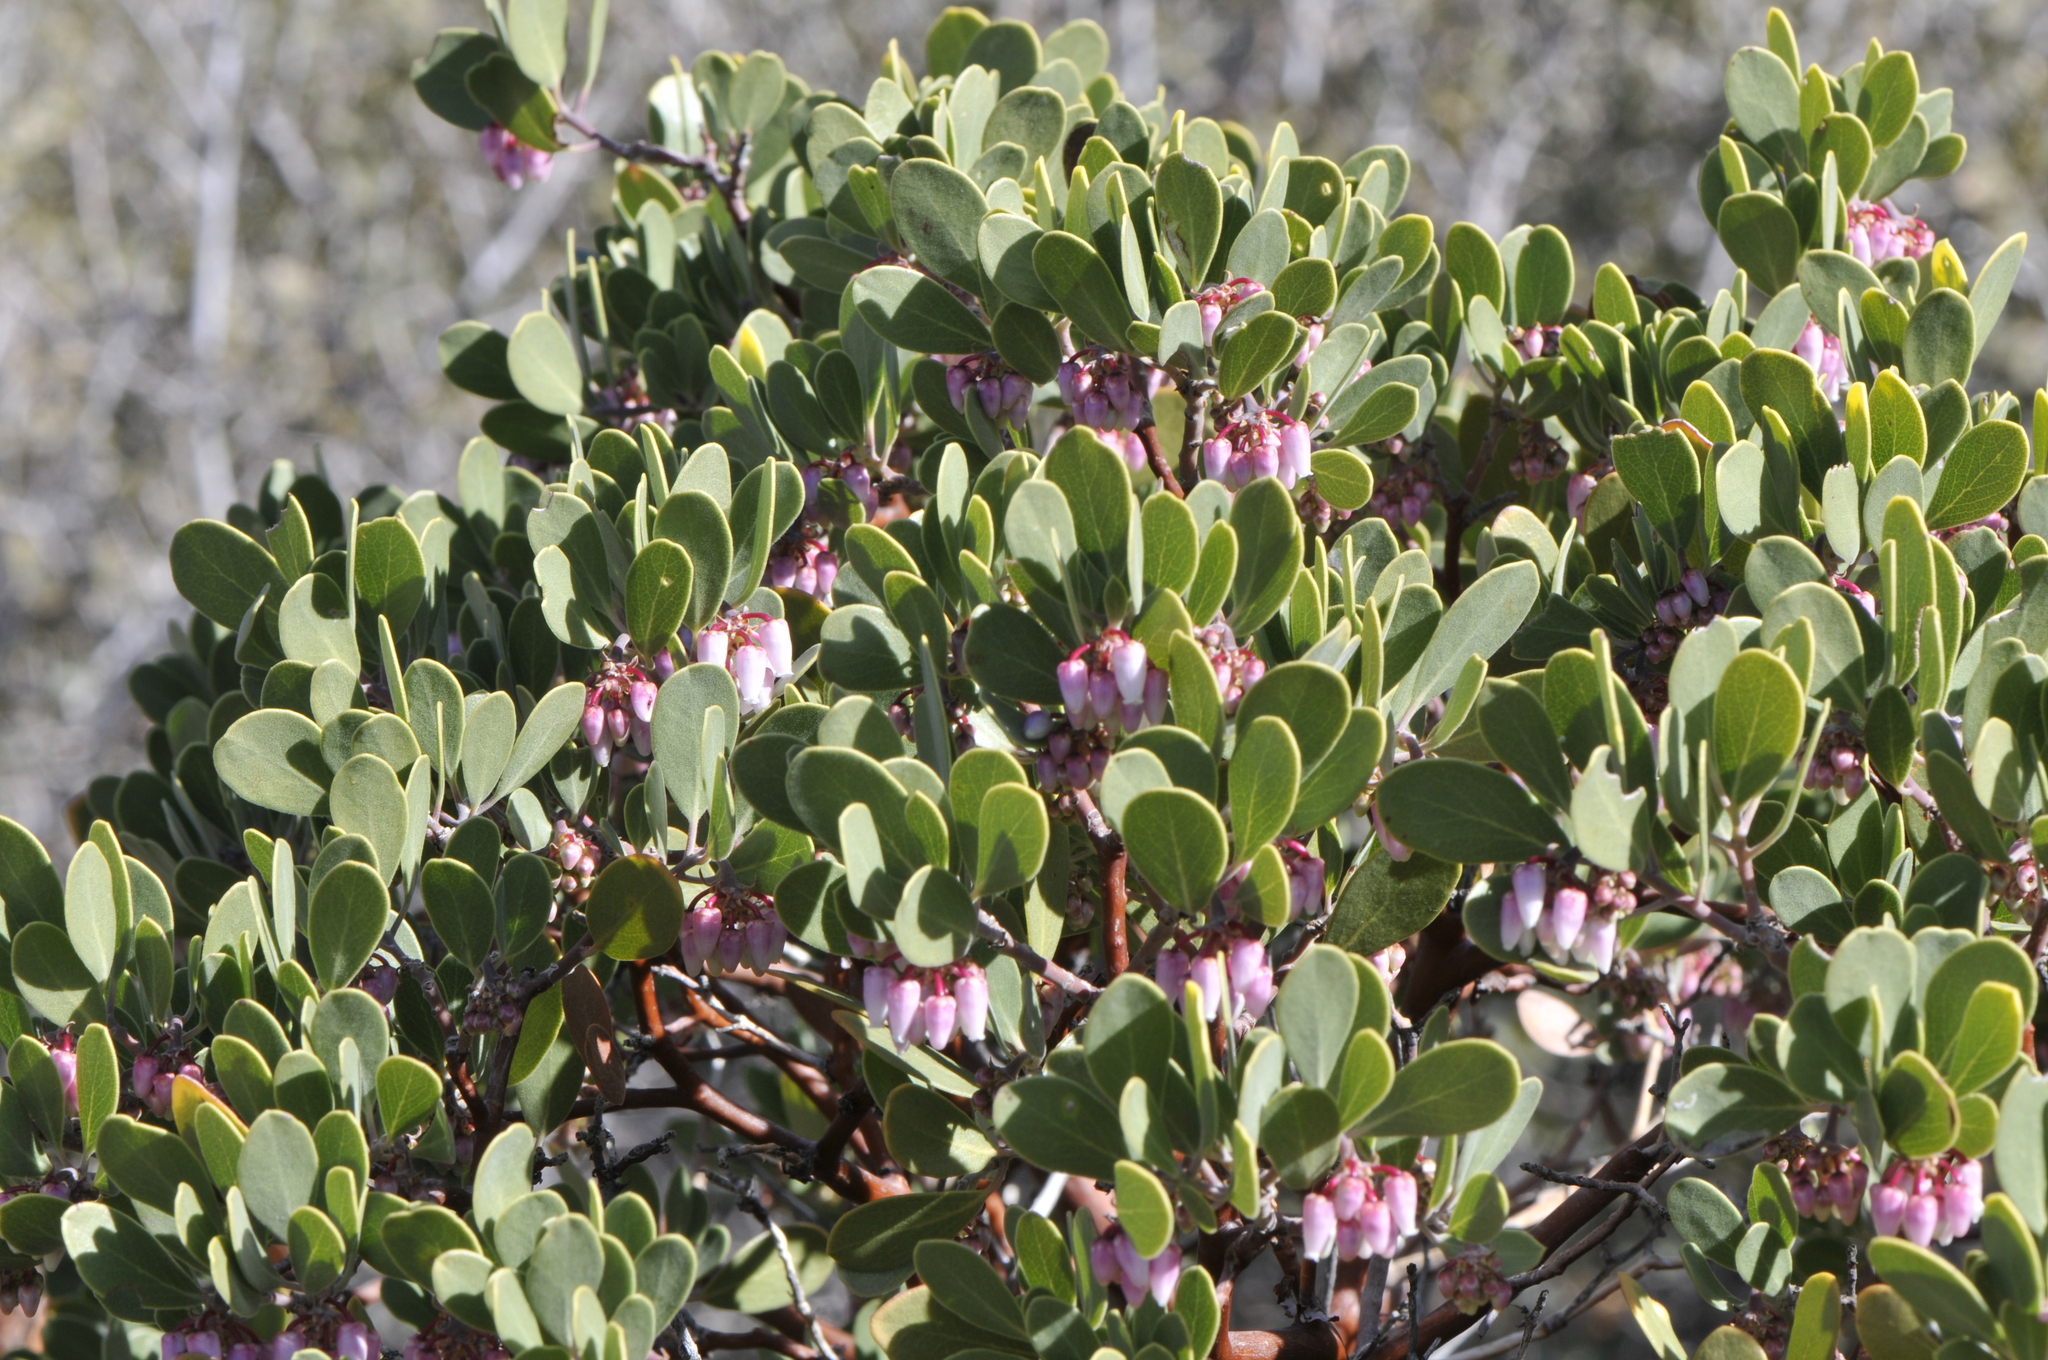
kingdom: Plantae
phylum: Tracheophyta
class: Magnoliopsida
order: Ericales
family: Ericaceae
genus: Arctostaphylos
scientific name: Arctostaphylos pungens
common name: Mexican manzanita
